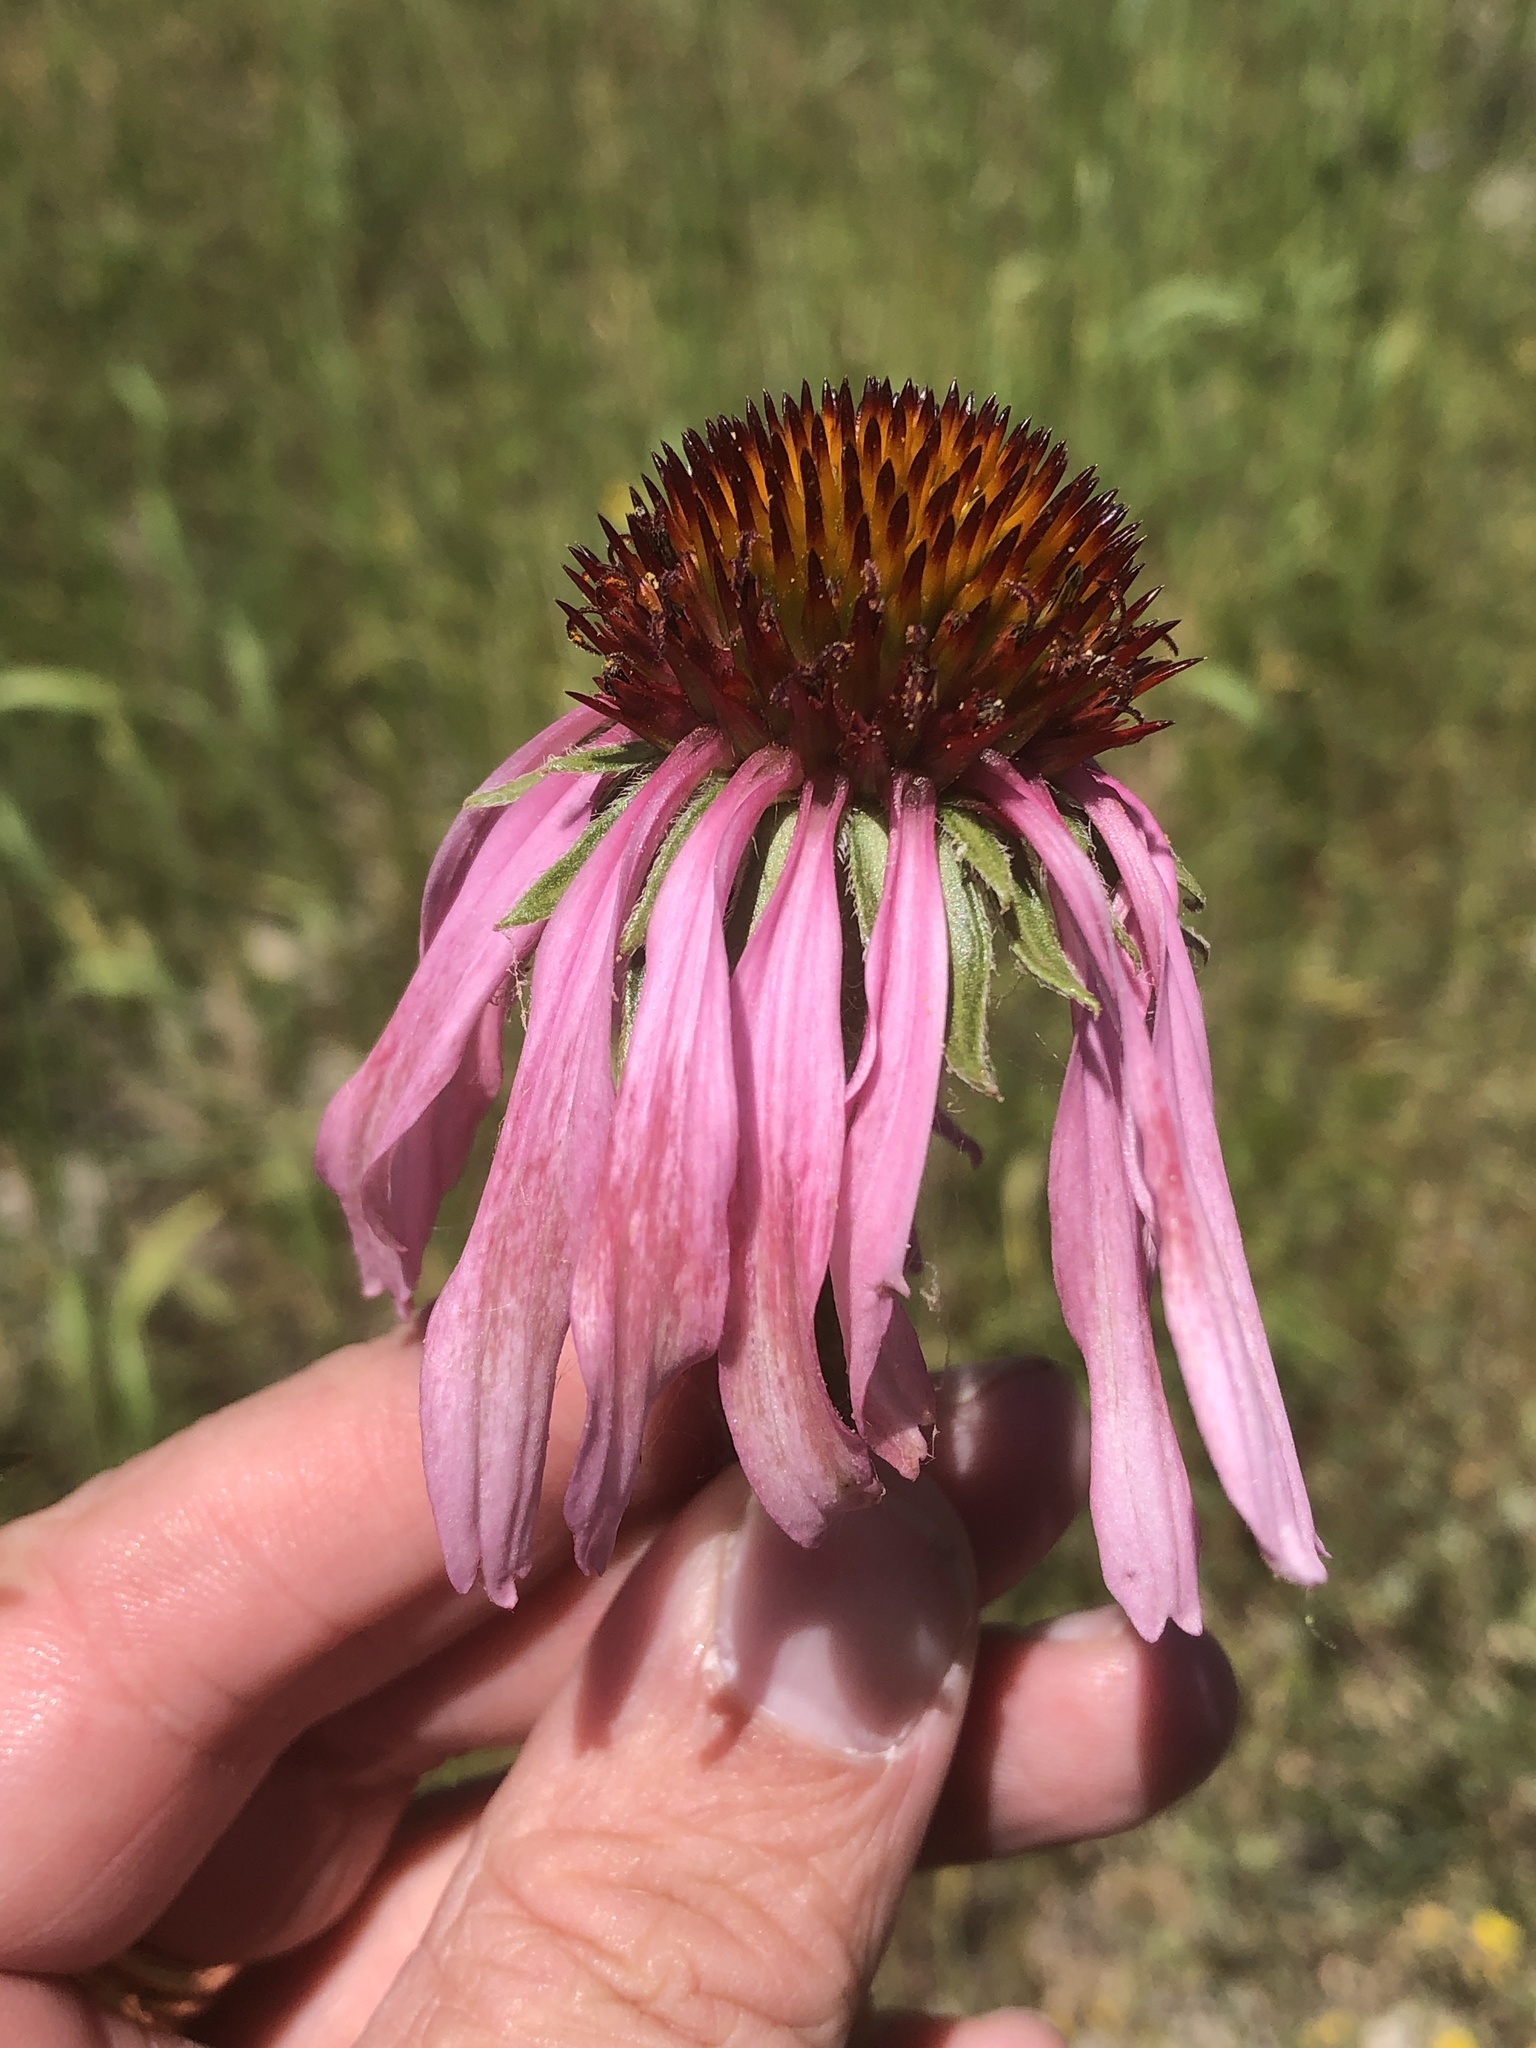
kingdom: Plantae
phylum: Tracheophyta
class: Magnoliopsida
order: Asterales
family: Asteraceae
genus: Echinacea
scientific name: Echinacea angustifolia
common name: Black-sampson echinacea
